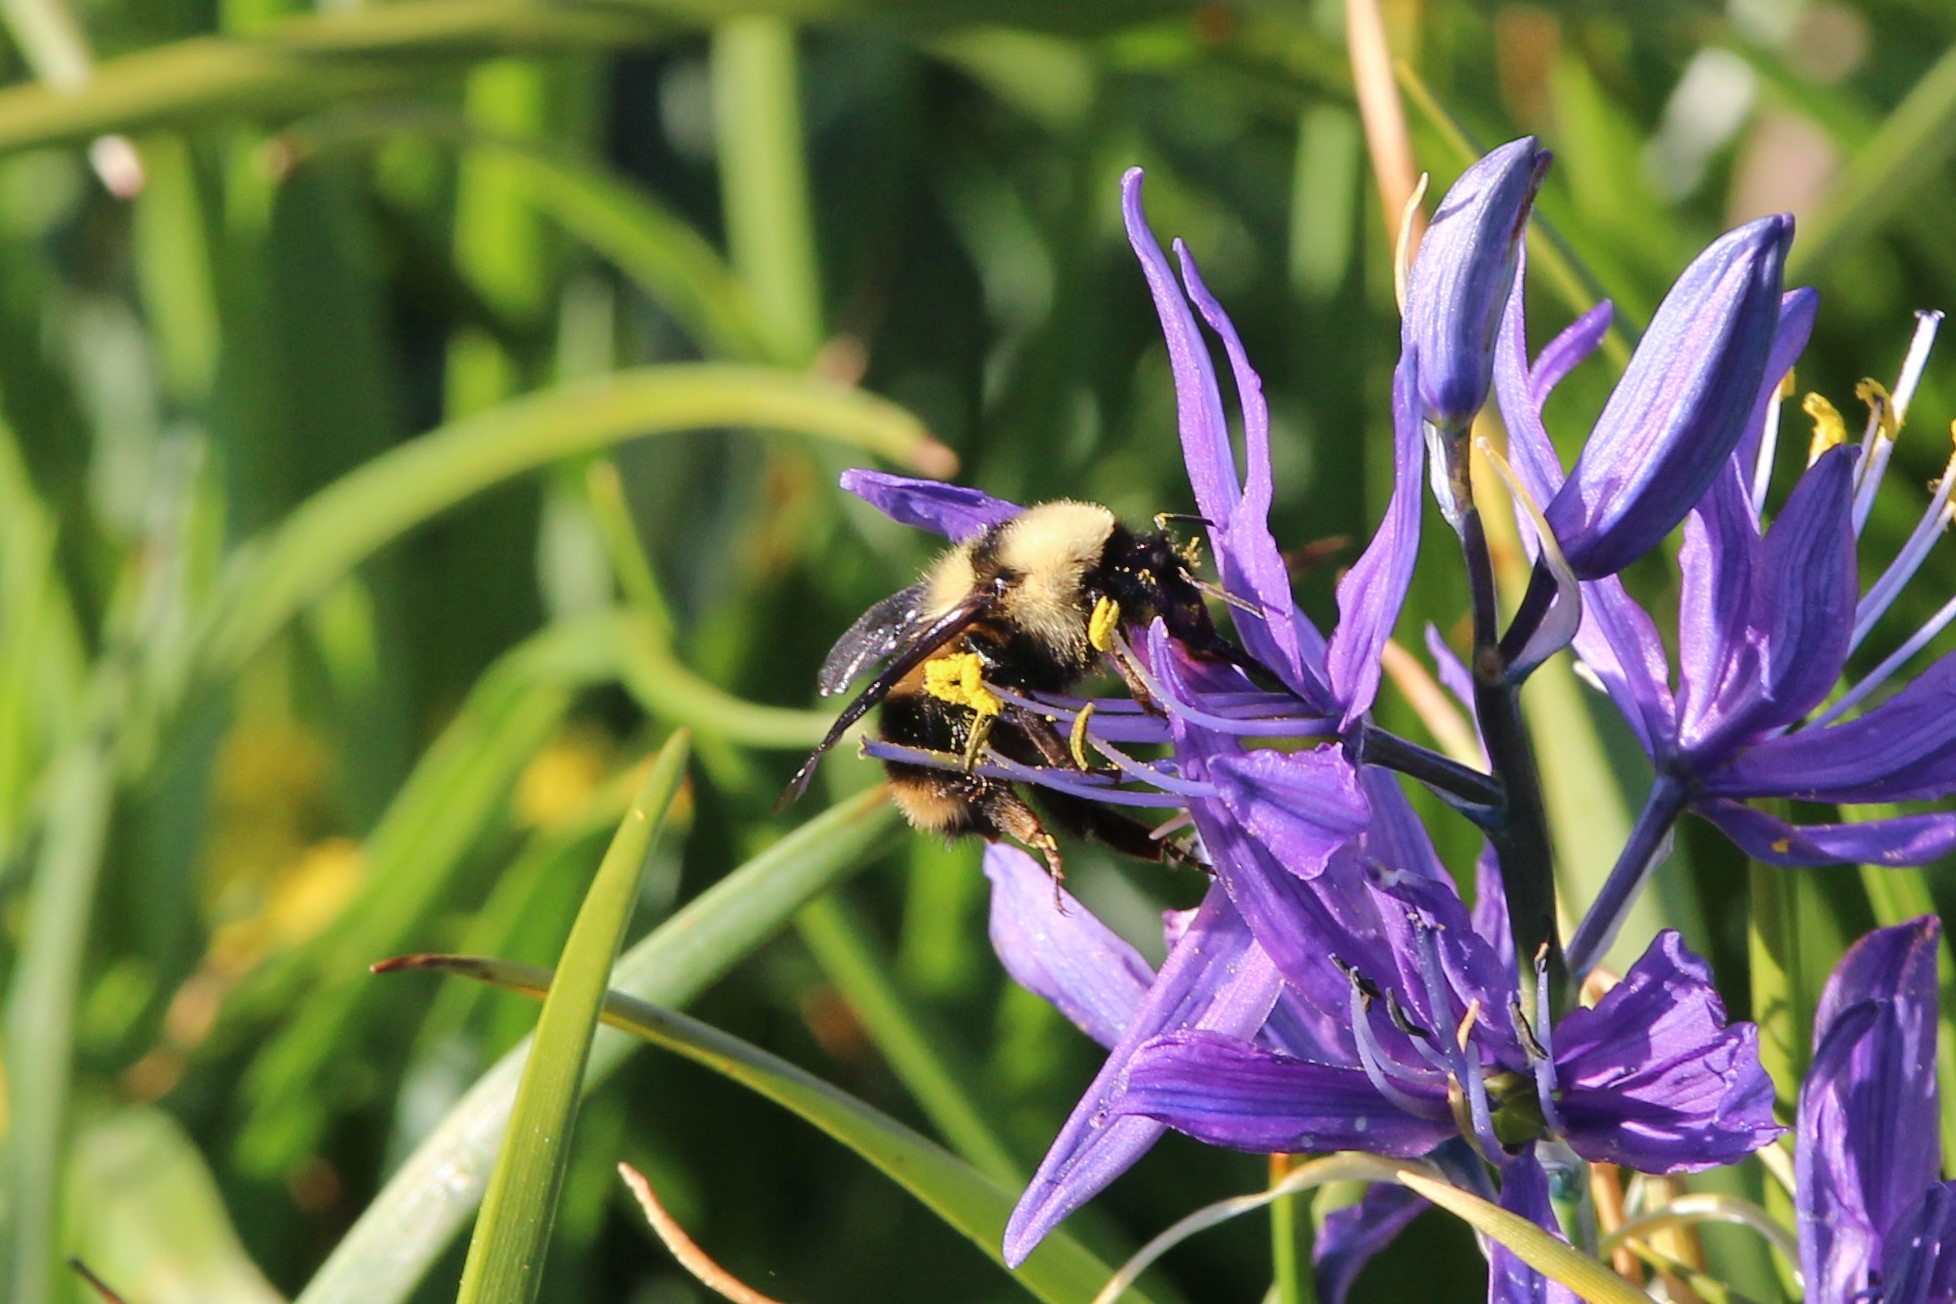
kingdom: Animalia
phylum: Arthropoda
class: Insecta
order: Hymenoptera
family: Apidae
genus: Bombus
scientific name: Bombus californicus
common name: California bumble bee
